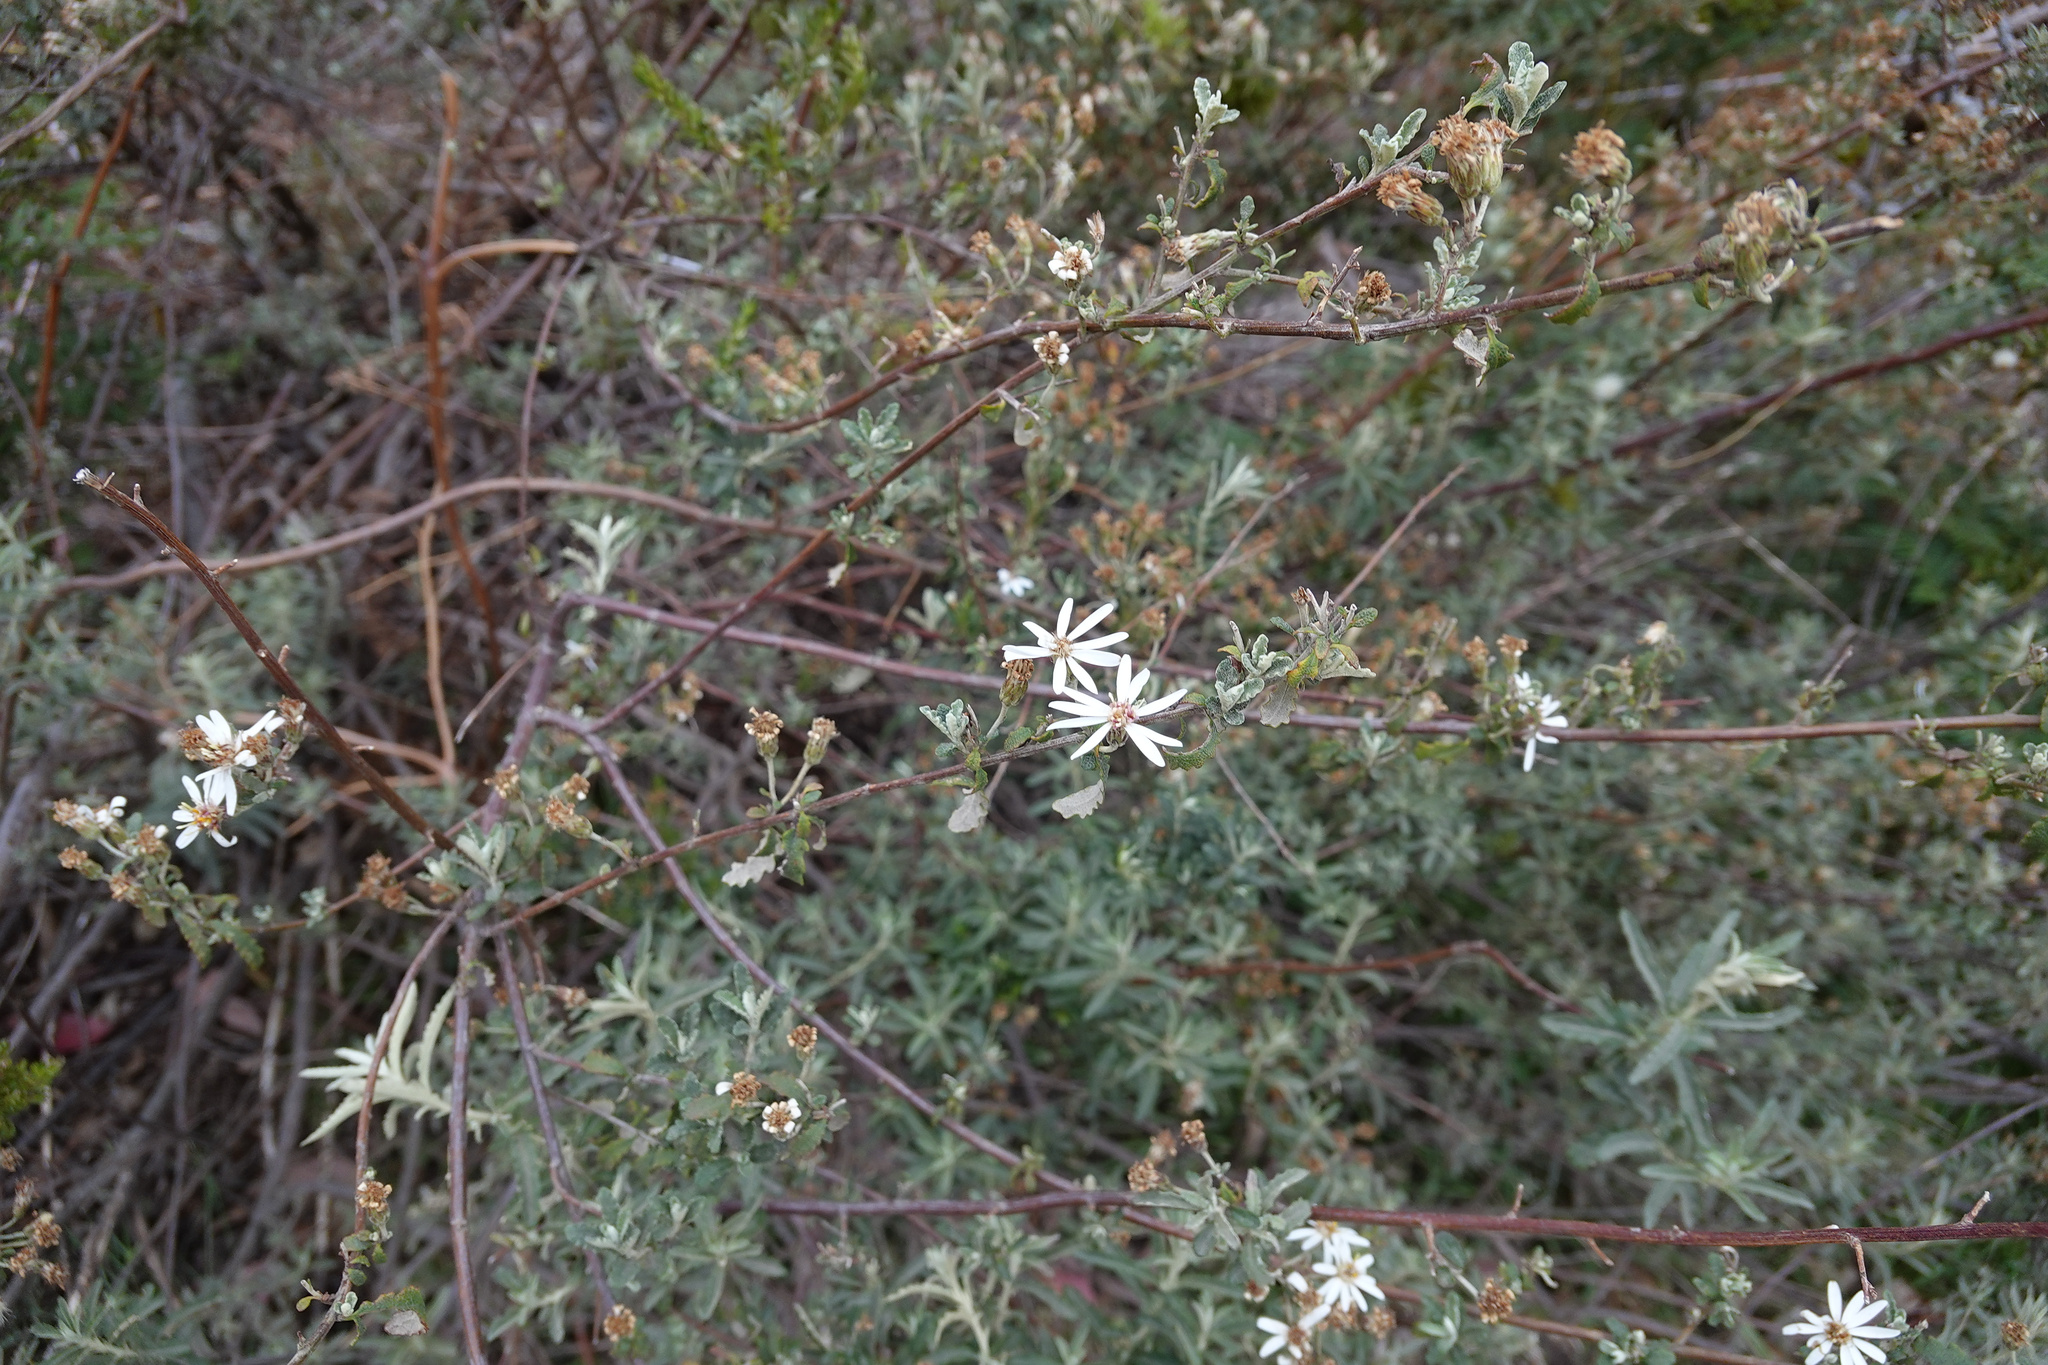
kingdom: Plantae
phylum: Tracheophyta
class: Magnoliopsida
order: Asterales
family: Asteraceae
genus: Olearia
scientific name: Olearia phlogopappa
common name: Alpine daisybush
